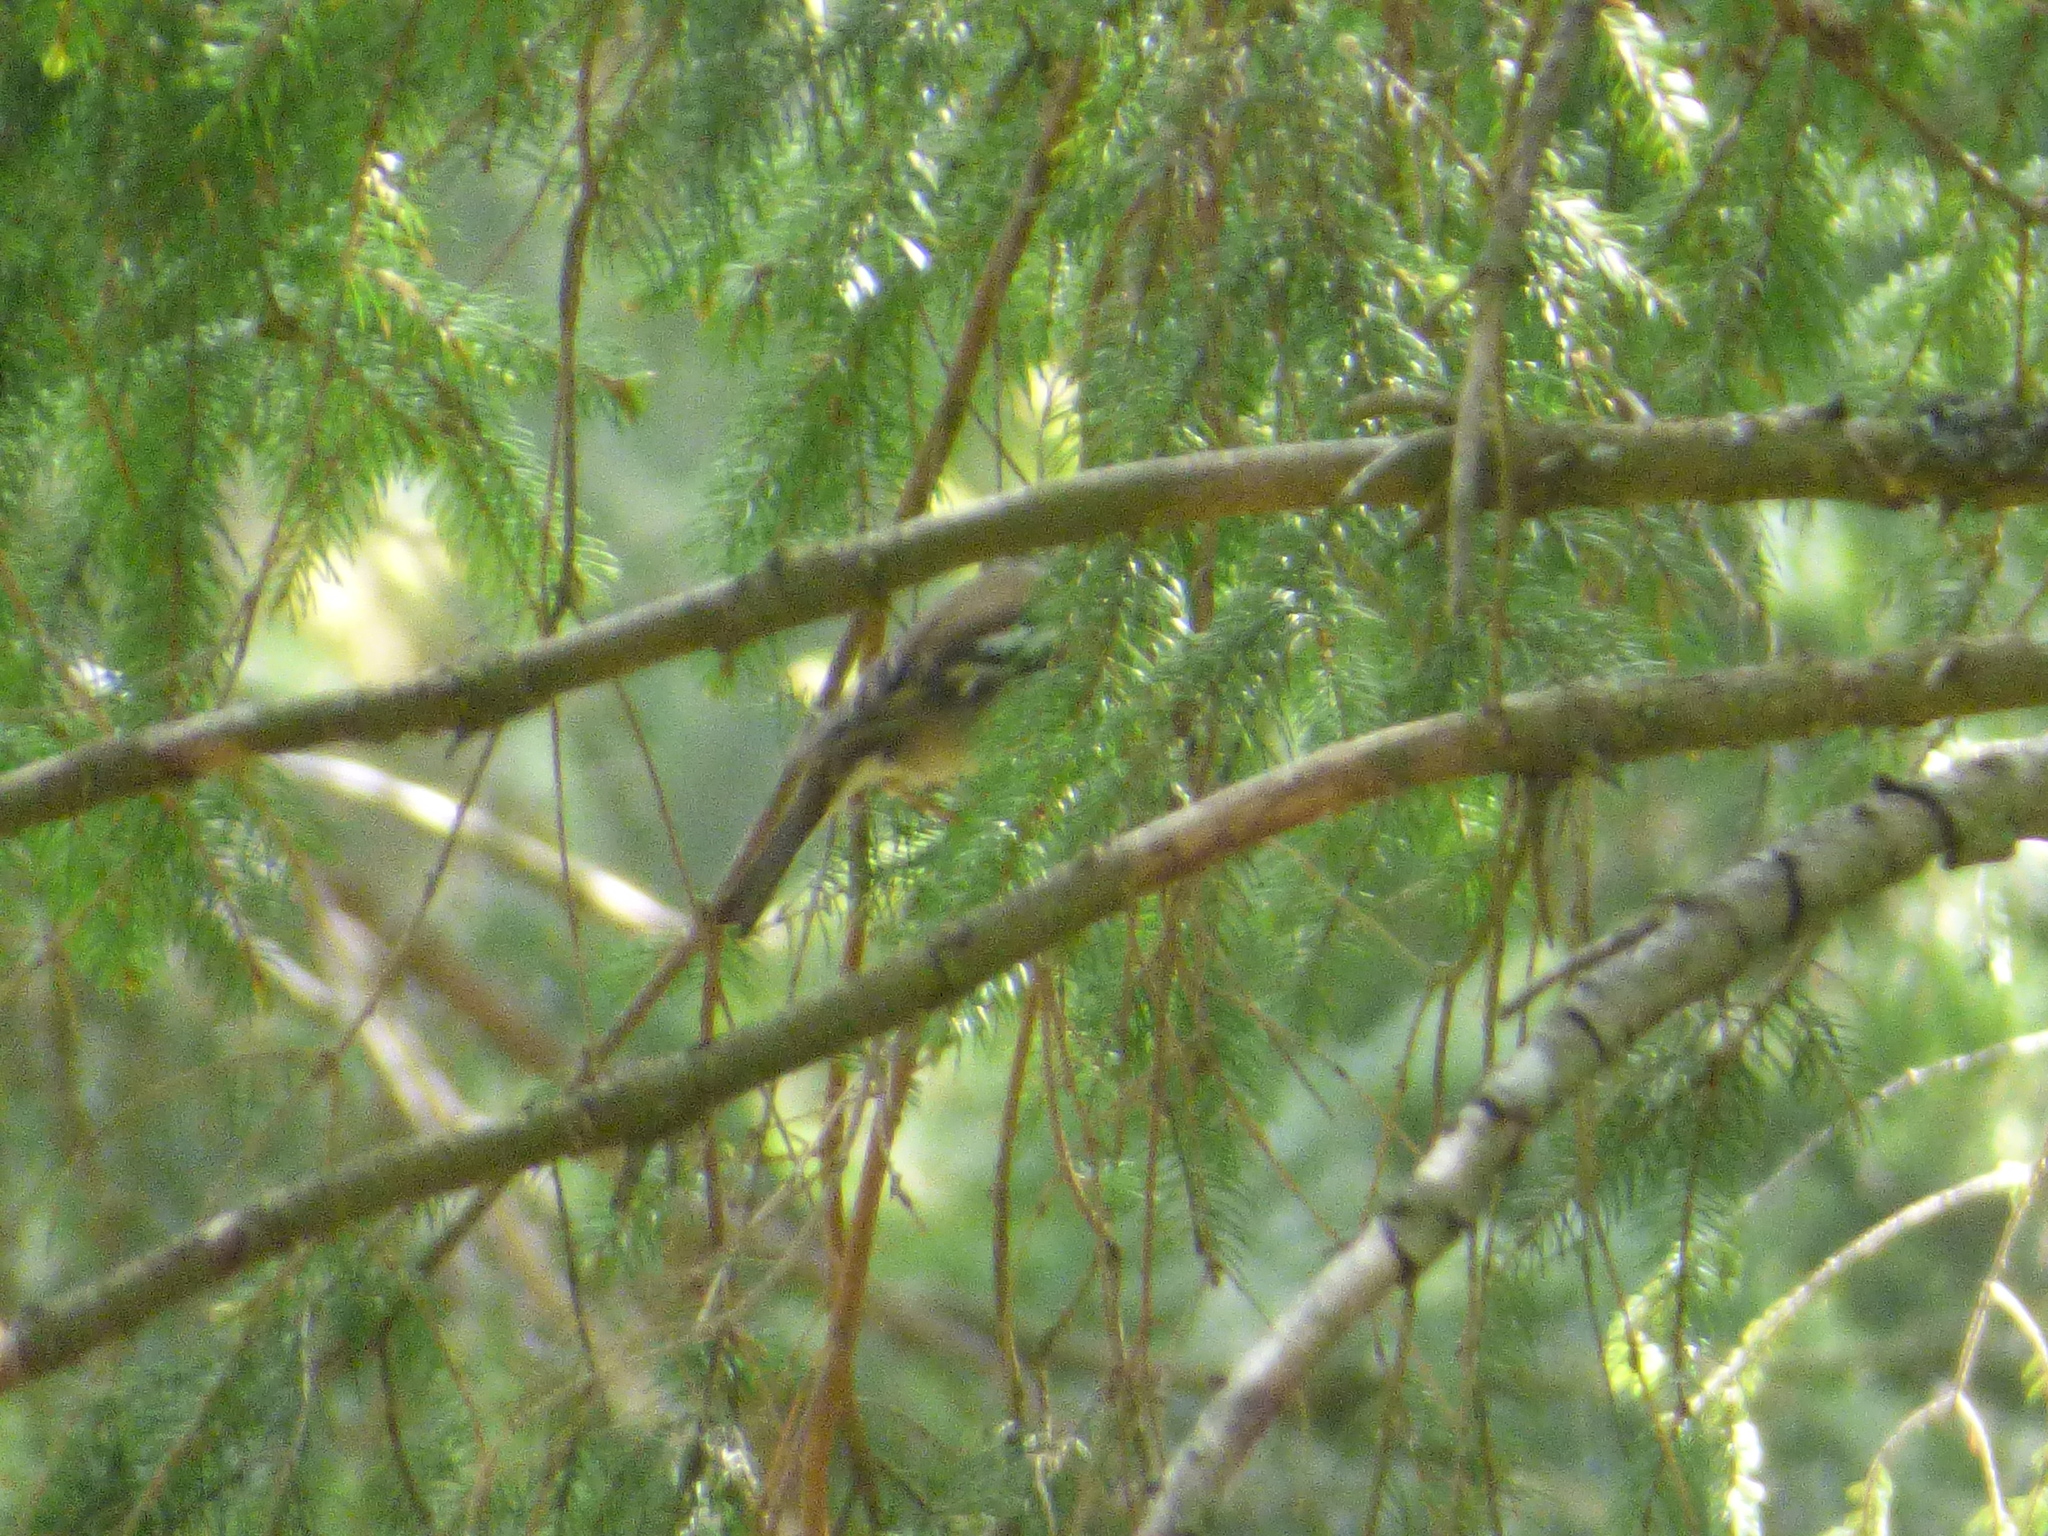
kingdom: Animalia
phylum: Chordata
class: Aves
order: Passeriformes
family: Fringillidae
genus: Fringilla
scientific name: Fringilla coelebs
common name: Common chaffinch
